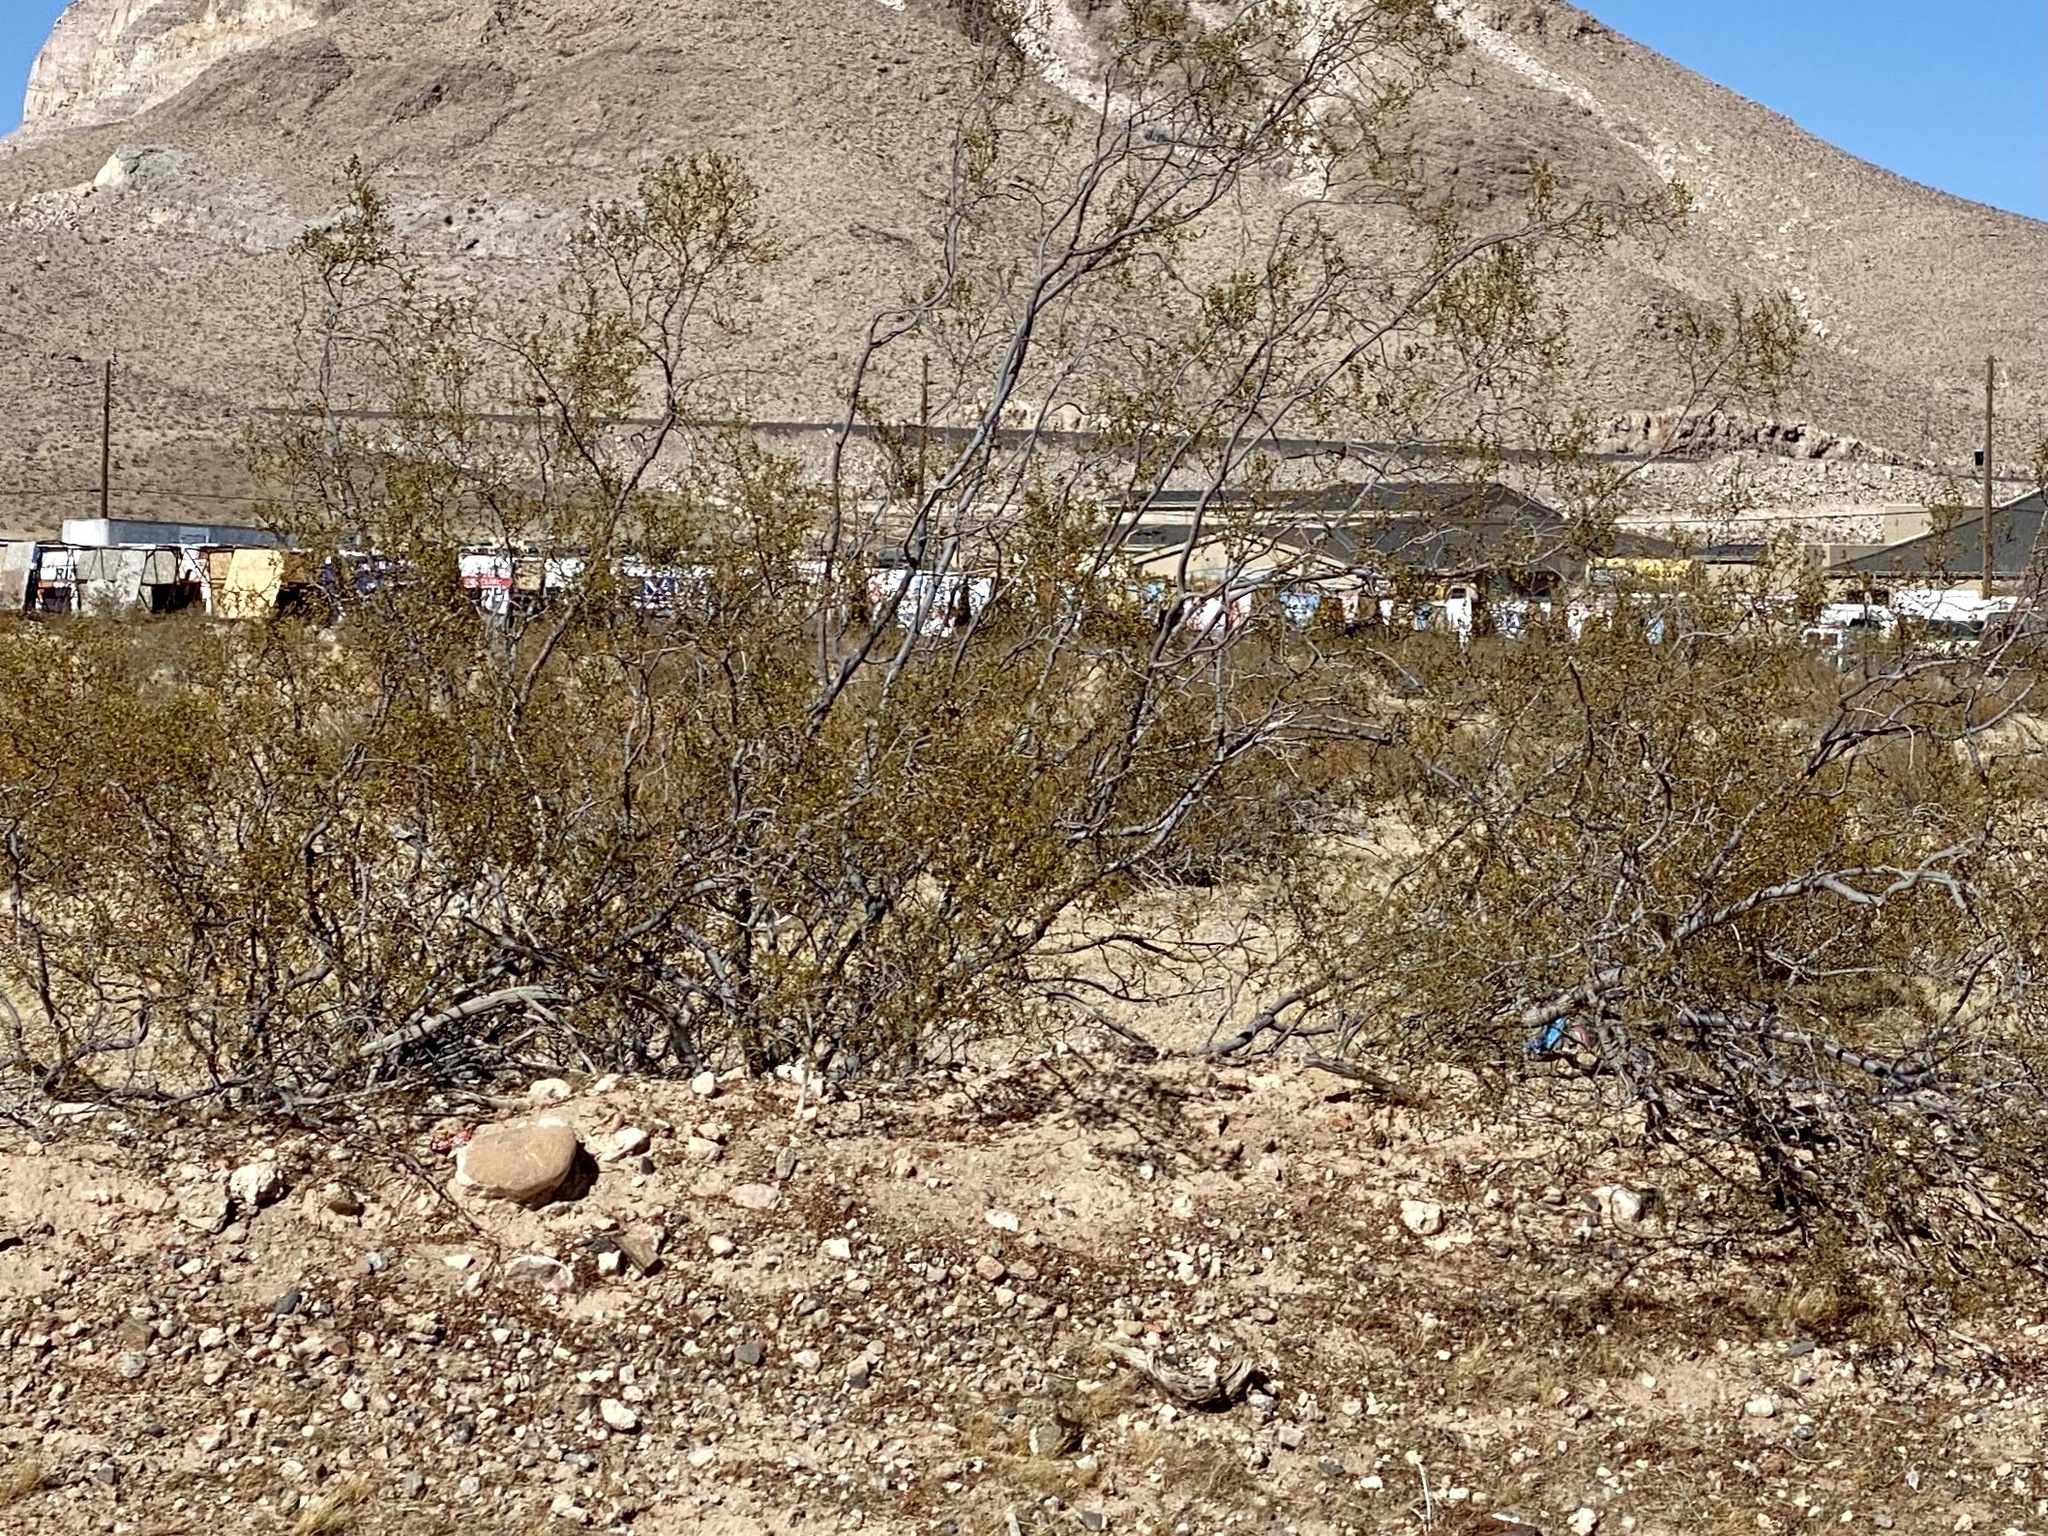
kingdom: Plantae
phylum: Tracheophyta
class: Magnoliopsida
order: Zygophyllales
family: Zygophyllaceae
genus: Larrea
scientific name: Larrea tridentata
